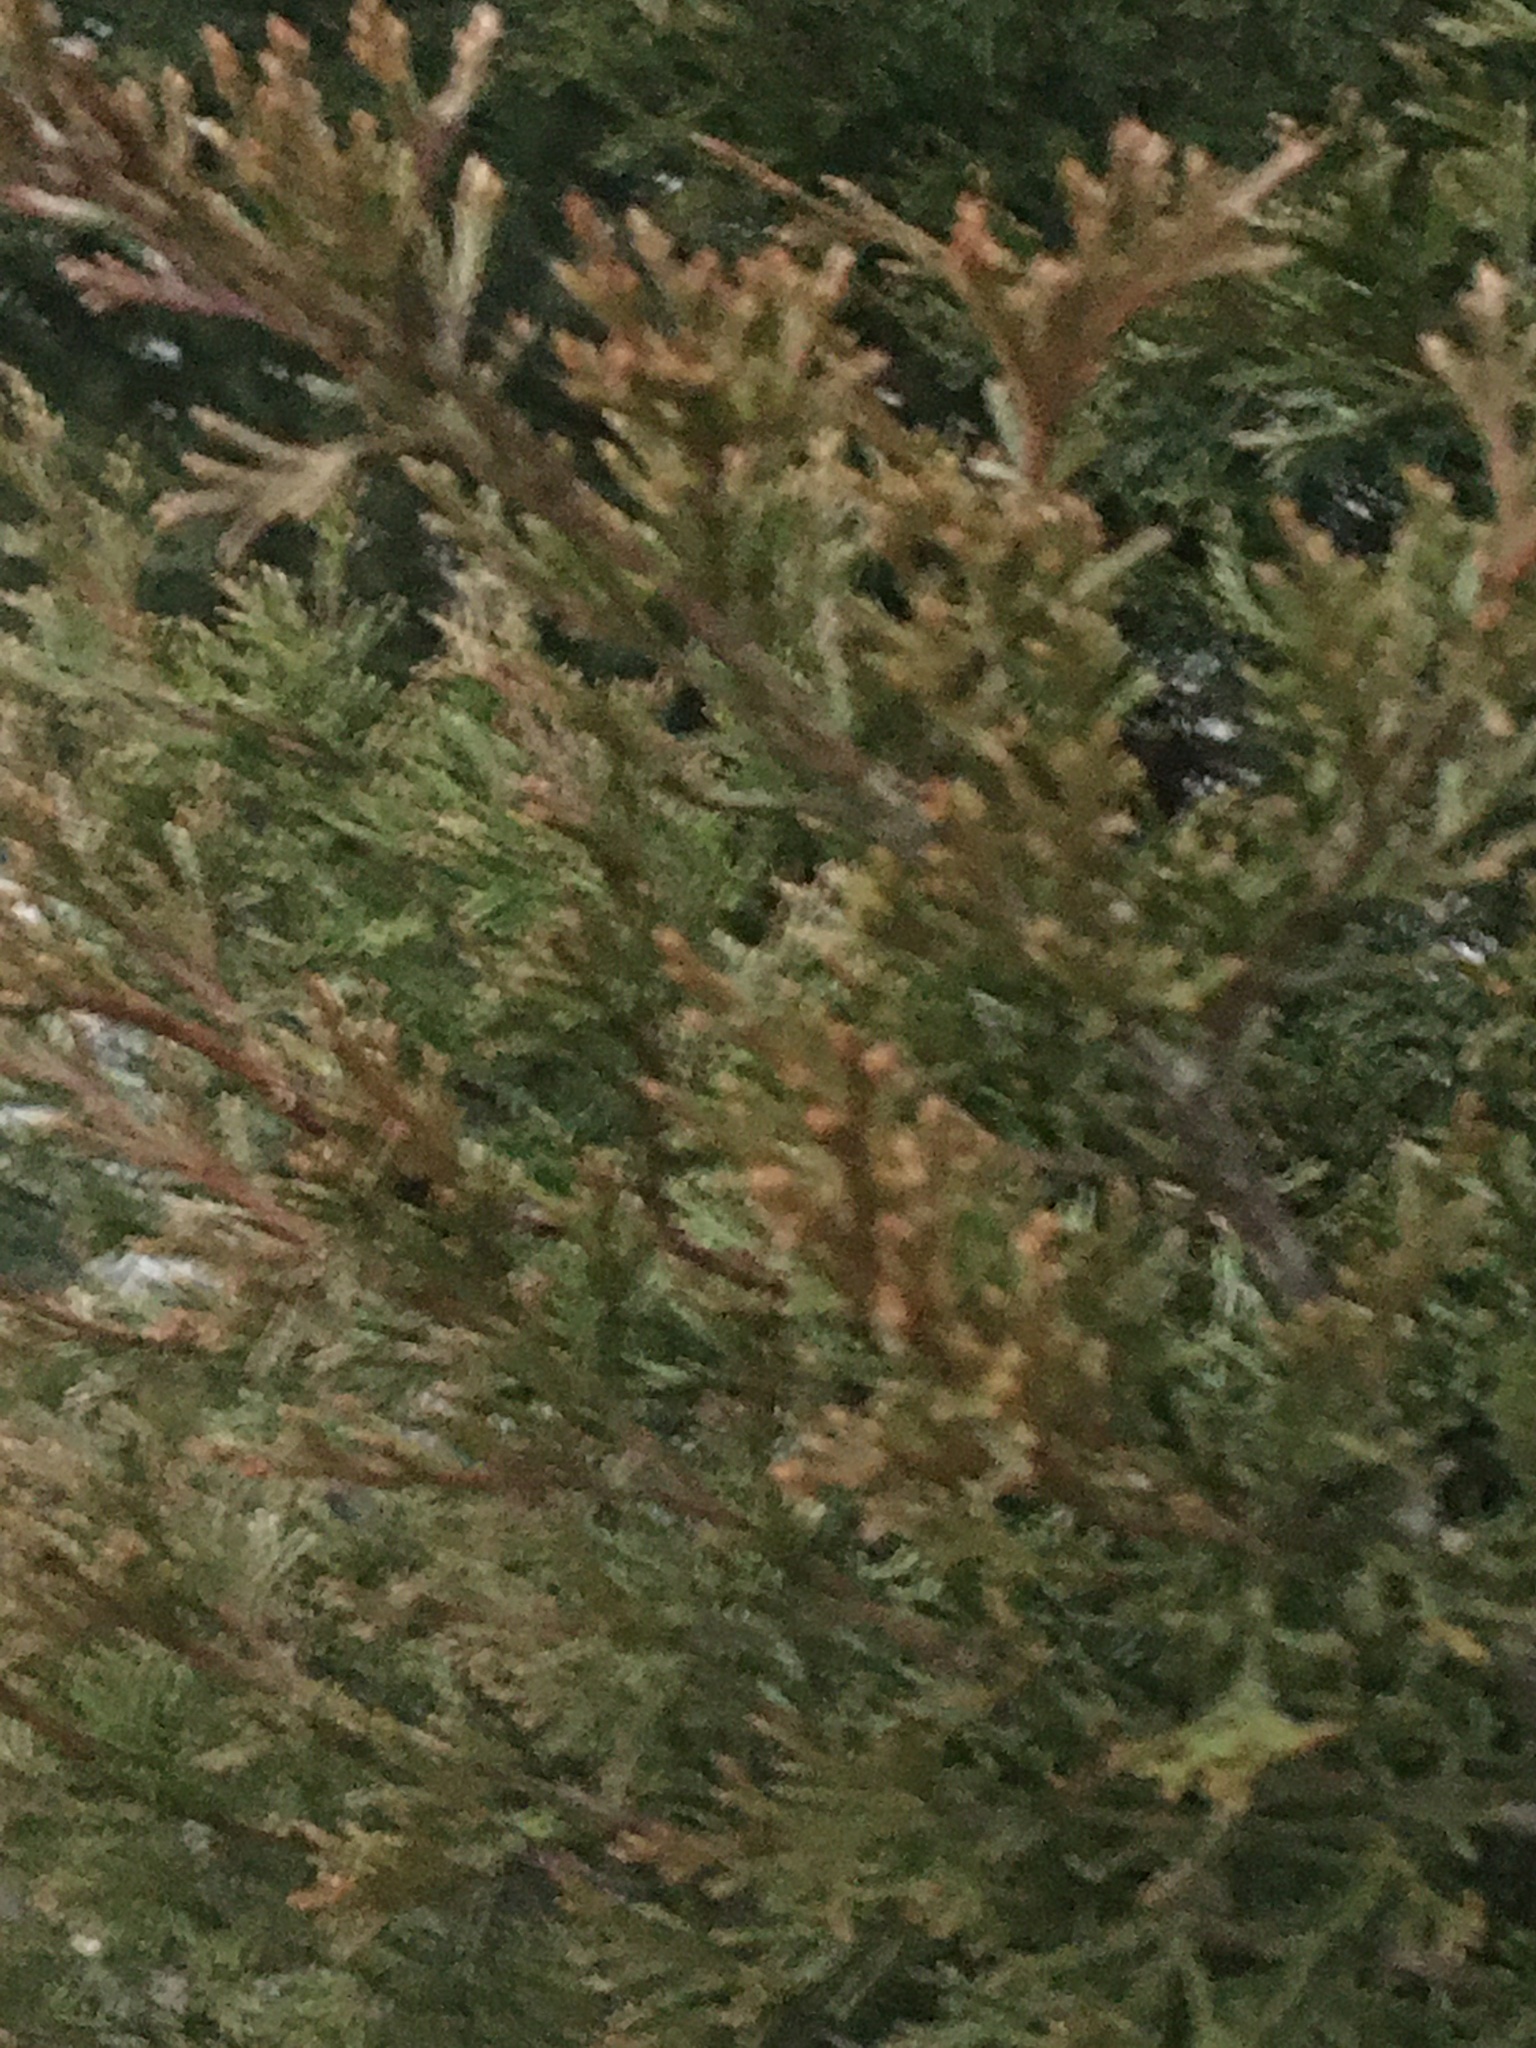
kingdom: Plantae
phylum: Tracheophyta
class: Pinopsida
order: Pinales
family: Cupressaceae
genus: Juniperus
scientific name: Juniperus virginiana
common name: Red juniper
